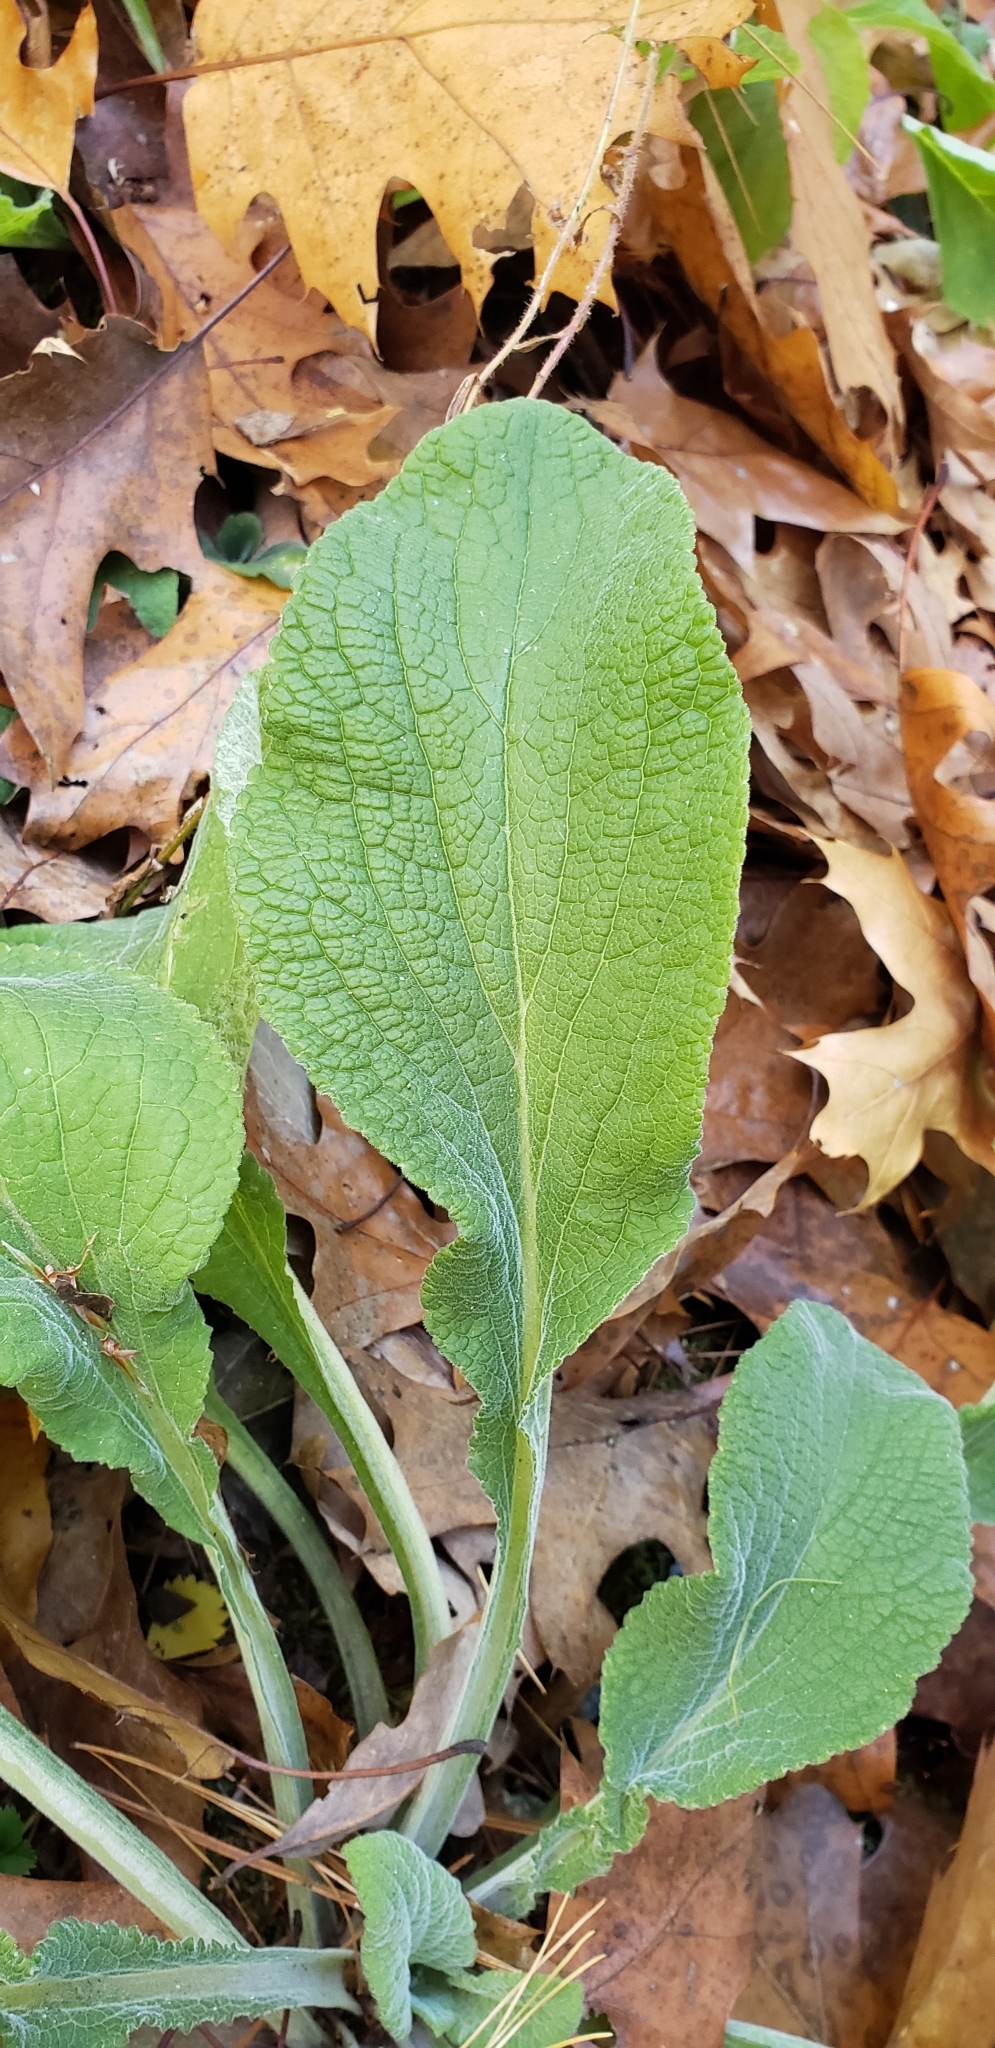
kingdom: Plantae
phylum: Tracheophyta
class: Magnoliopsida
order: Lamiales
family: Plantaginaceae
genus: Digitalis
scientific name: Digitalis purpurea
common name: Foxglove
